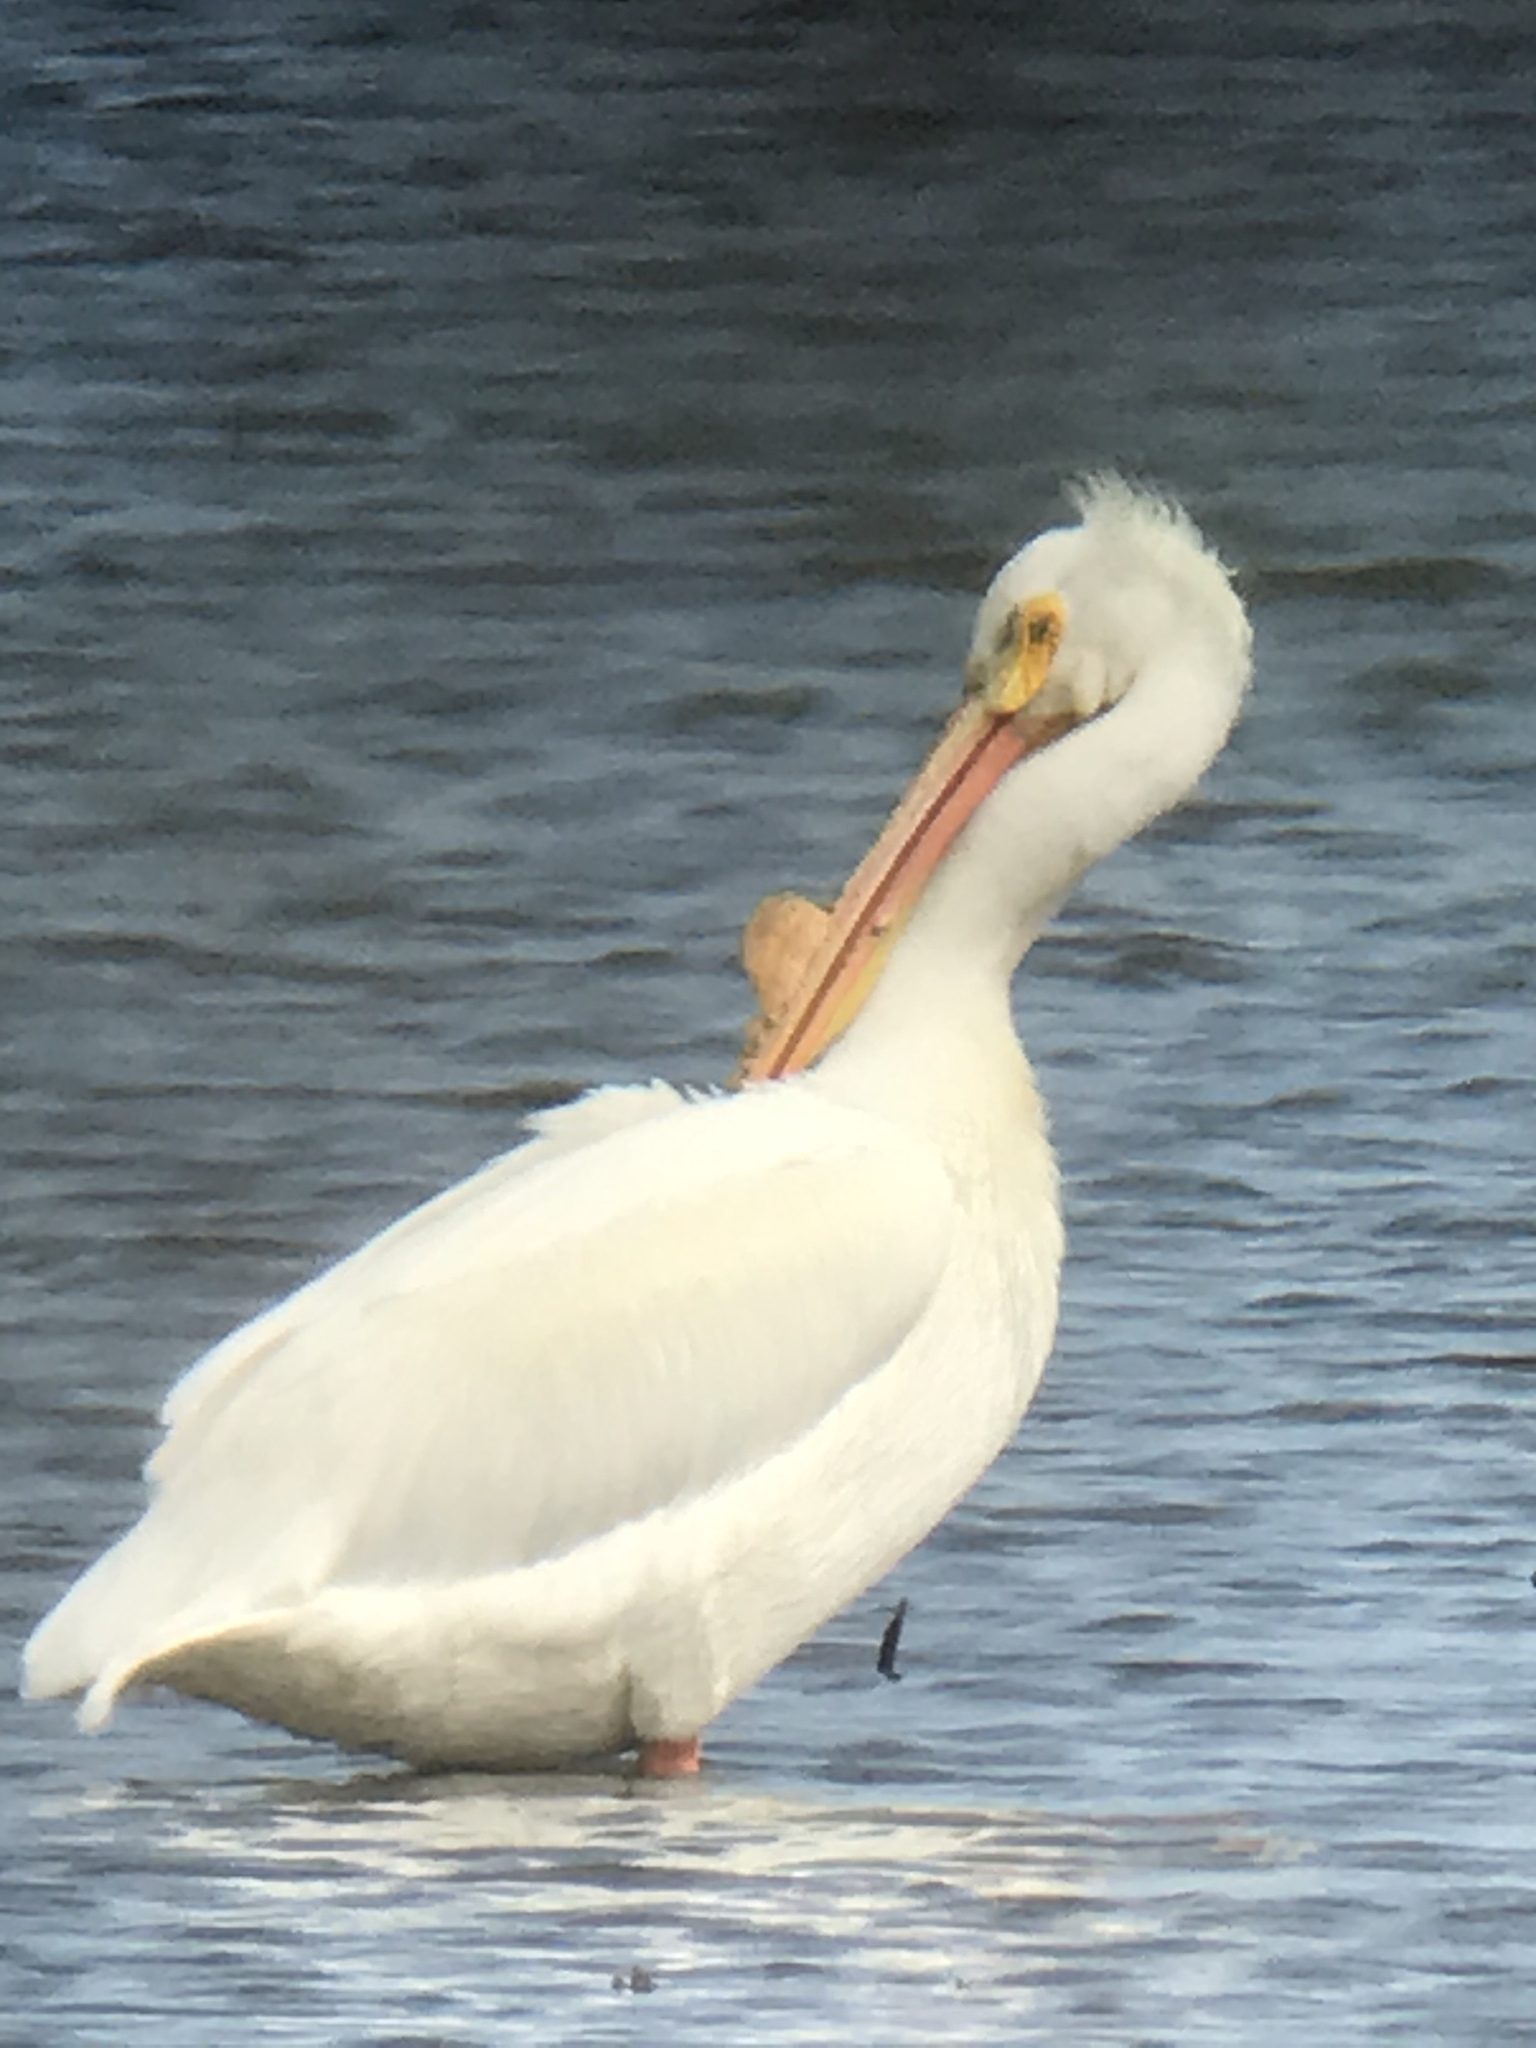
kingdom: Animalia
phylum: Chordata
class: Aves
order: Pelecaniformes
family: Pelecanidae
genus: Pelecanus
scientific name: Pelecanus erythrorhynchos
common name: American white pelican
